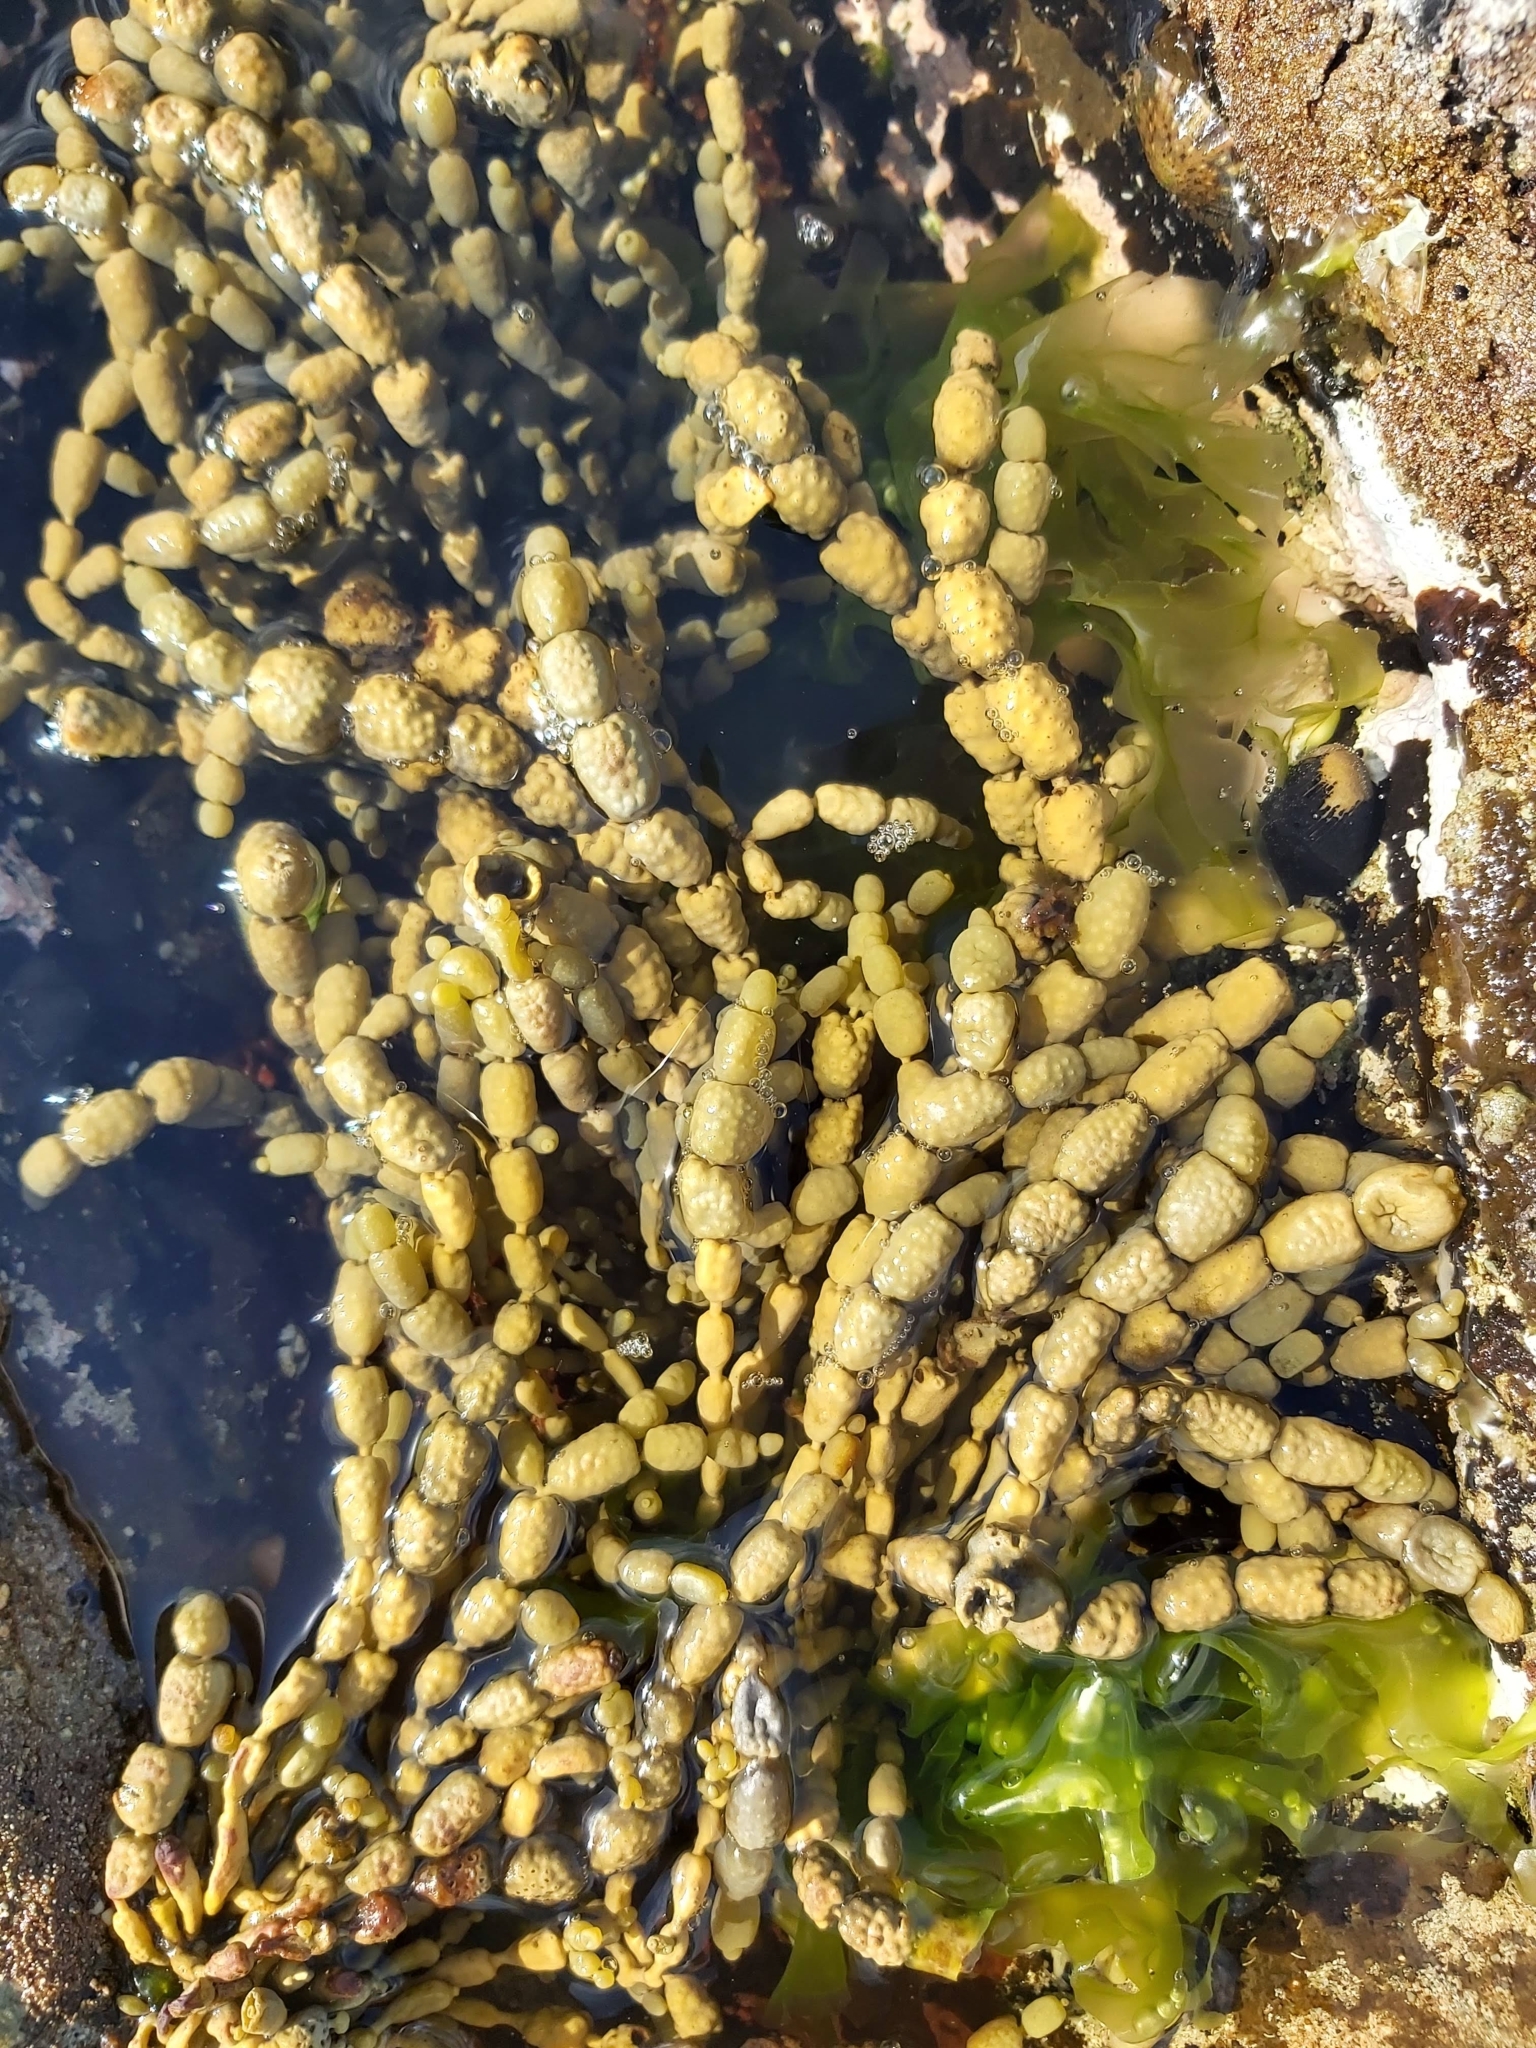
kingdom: Chromista
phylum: Ochrophyta
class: Phaeophyceae
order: Fucales
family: Hormosiraceae
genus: Hormosira
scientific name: Hormosira banksii
